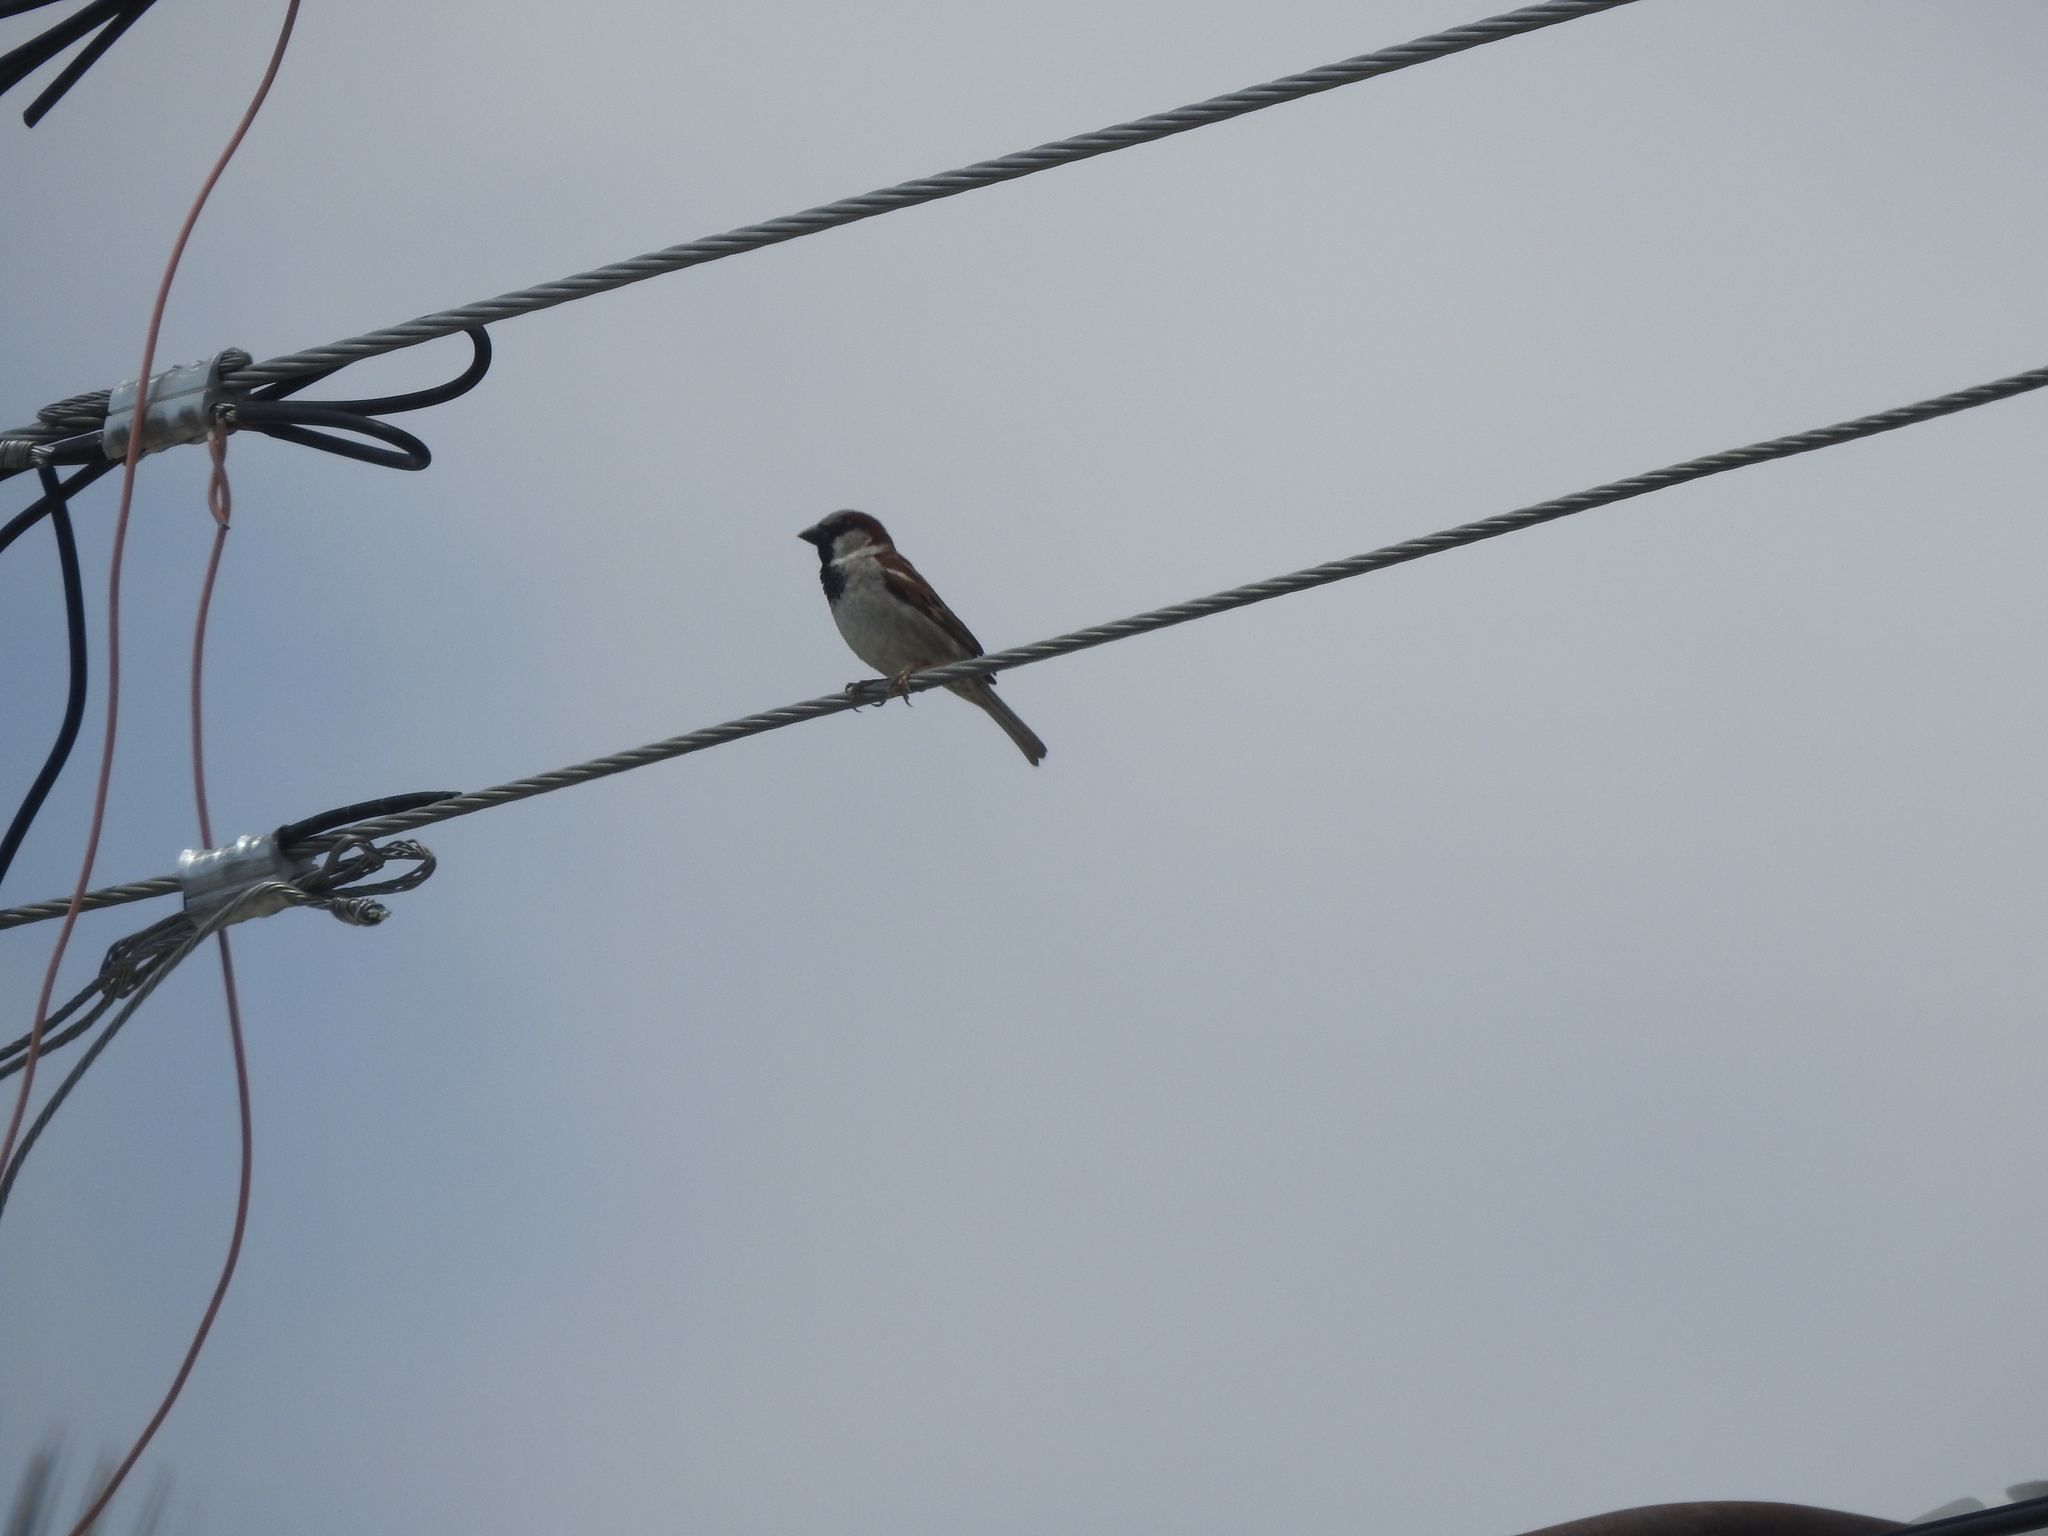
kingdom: Animalia
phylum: Chordata
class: Aves
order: Passeriformes
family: Passeridae
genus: Passer
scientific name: Passer domesticus
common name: House sparrow
